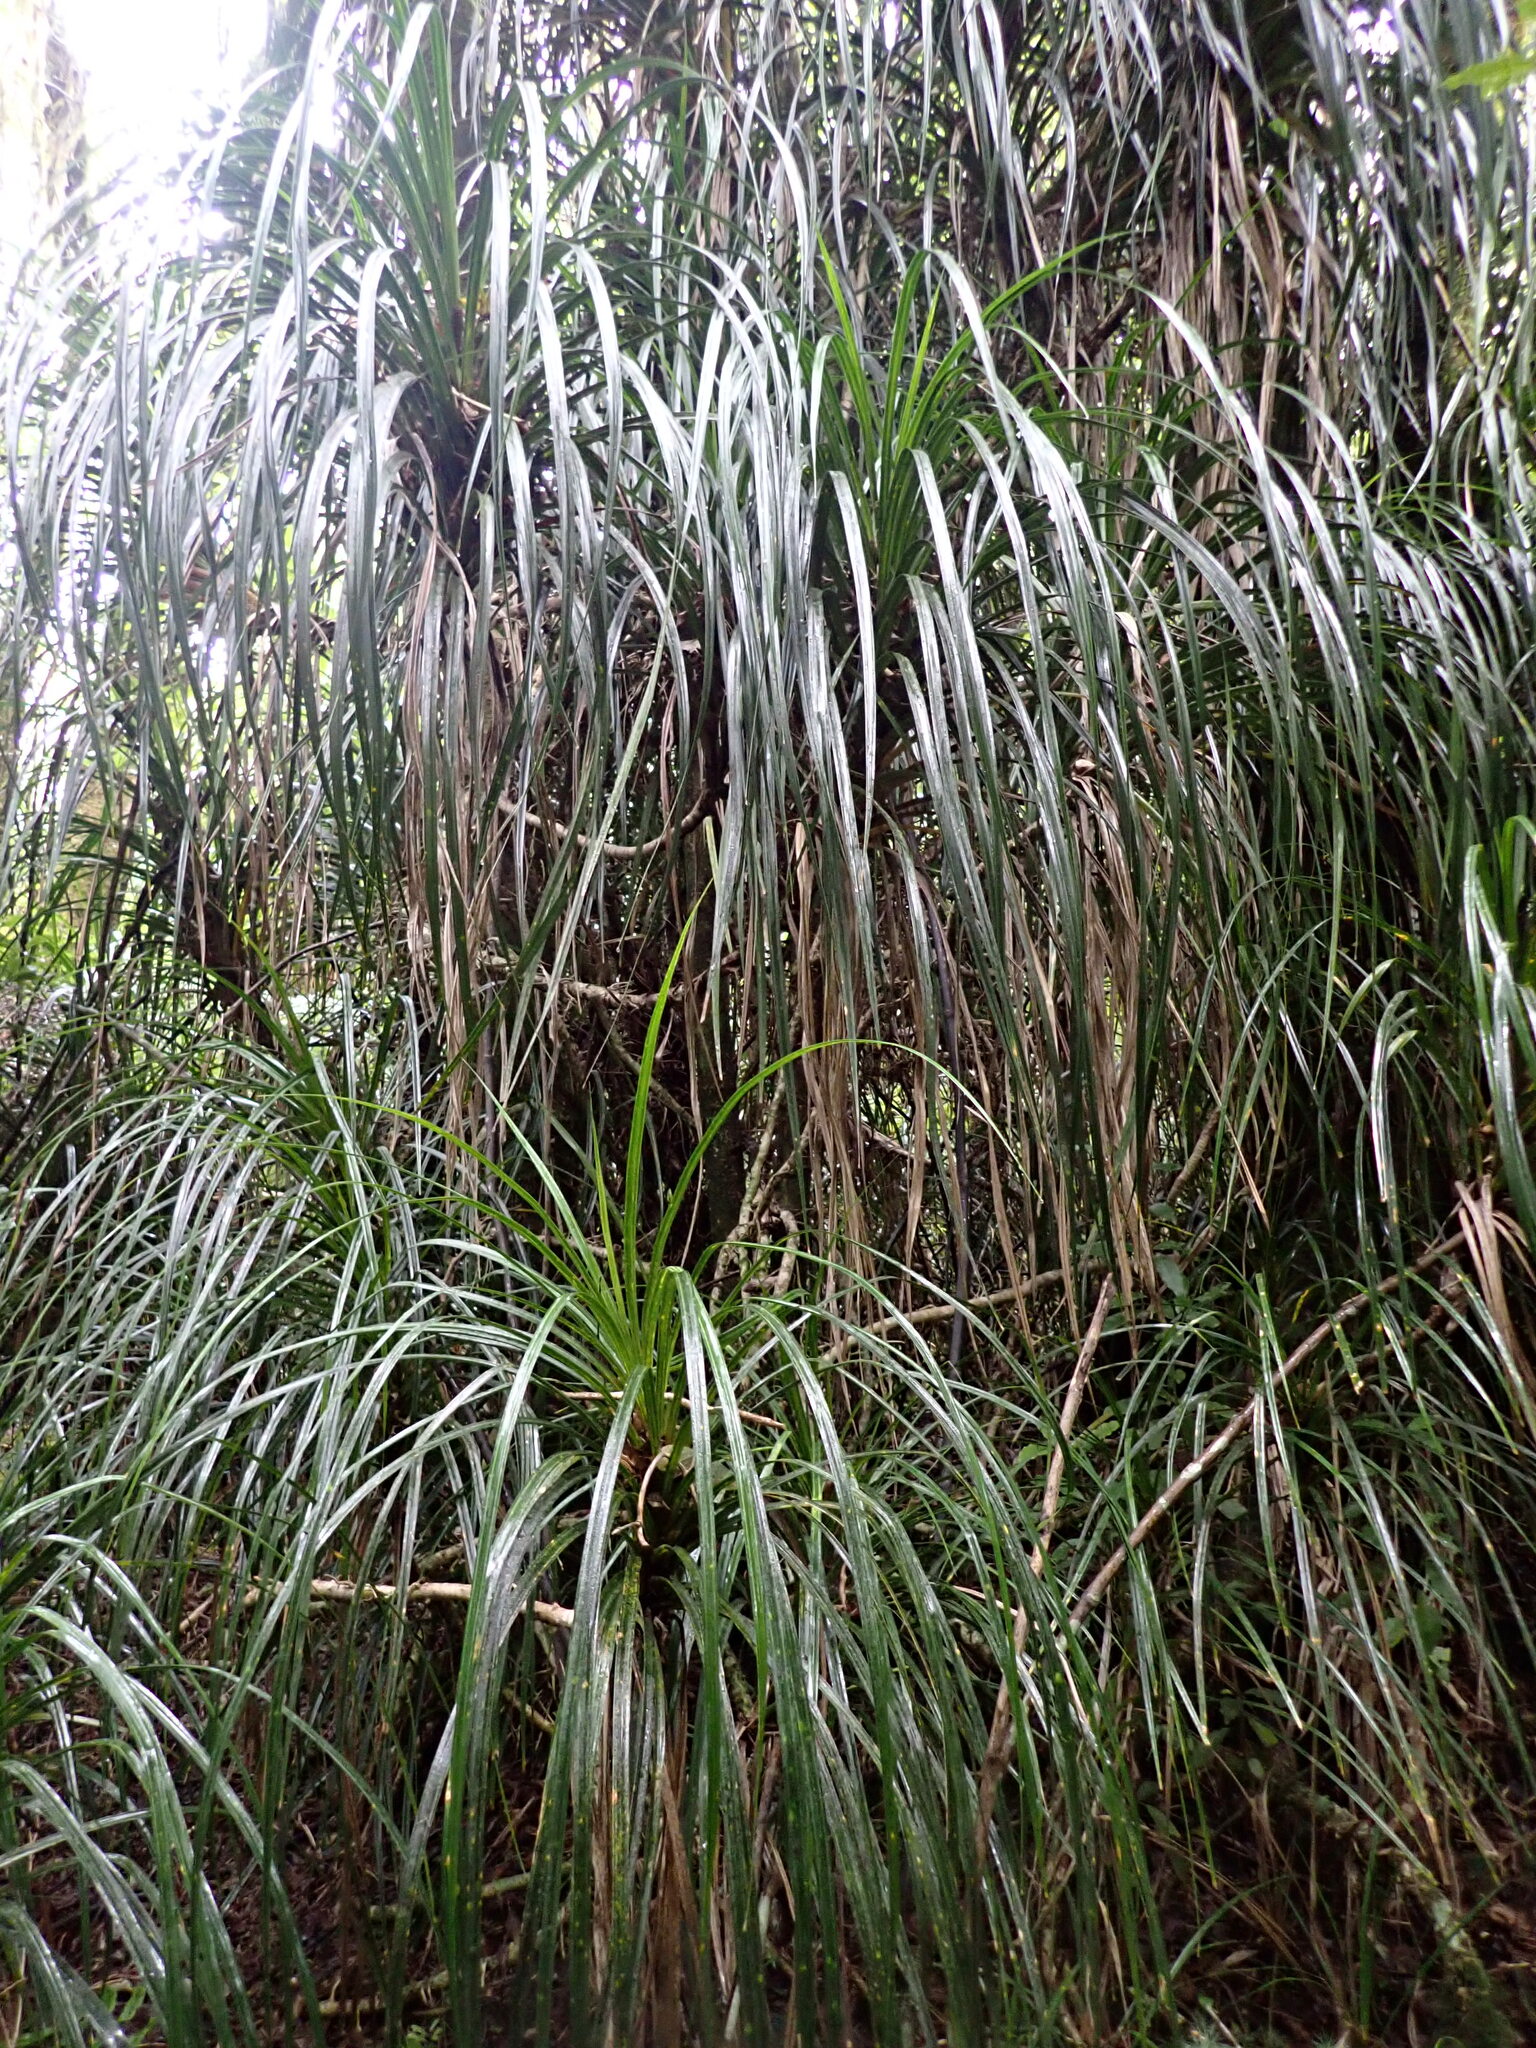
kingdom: Plantae
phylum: Tracheophyta
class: Liliopsida
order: Pandanales
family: Pandanaceae
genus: Freycinetia
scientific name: Freycinetia banksii
